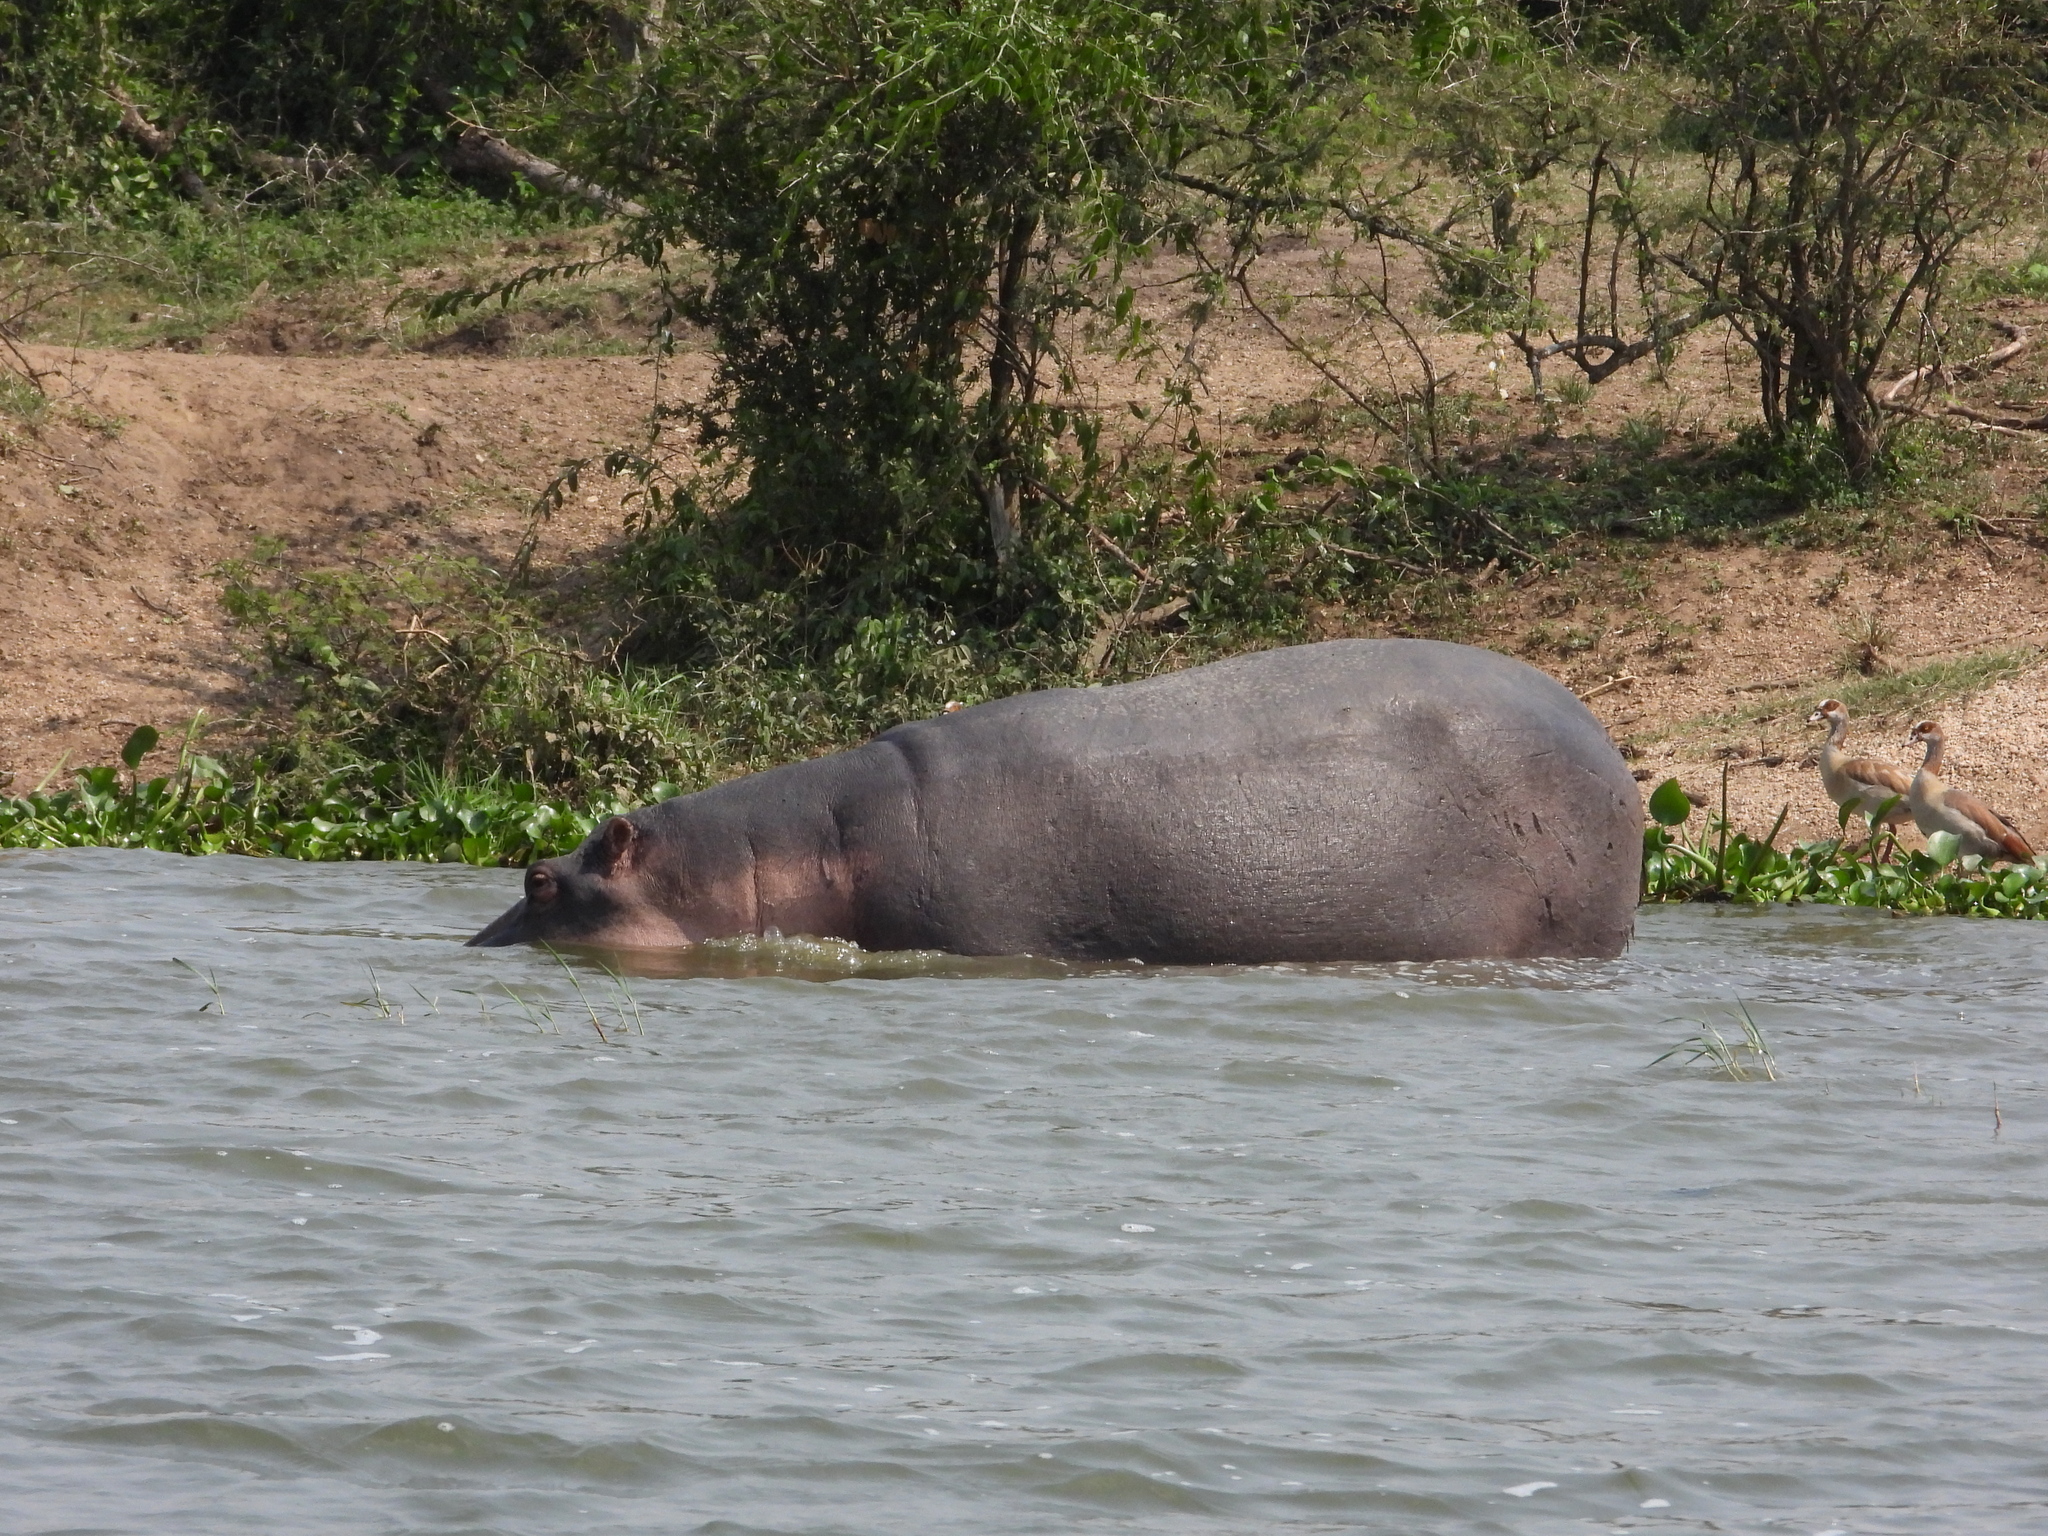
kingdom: Animalia
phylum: Chordata
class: Mammalia
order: Artiodactyla
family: Hippopotamidae
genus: Hippopotamus
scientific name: Hippopotamus amphibius
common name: Common hippopotamus
